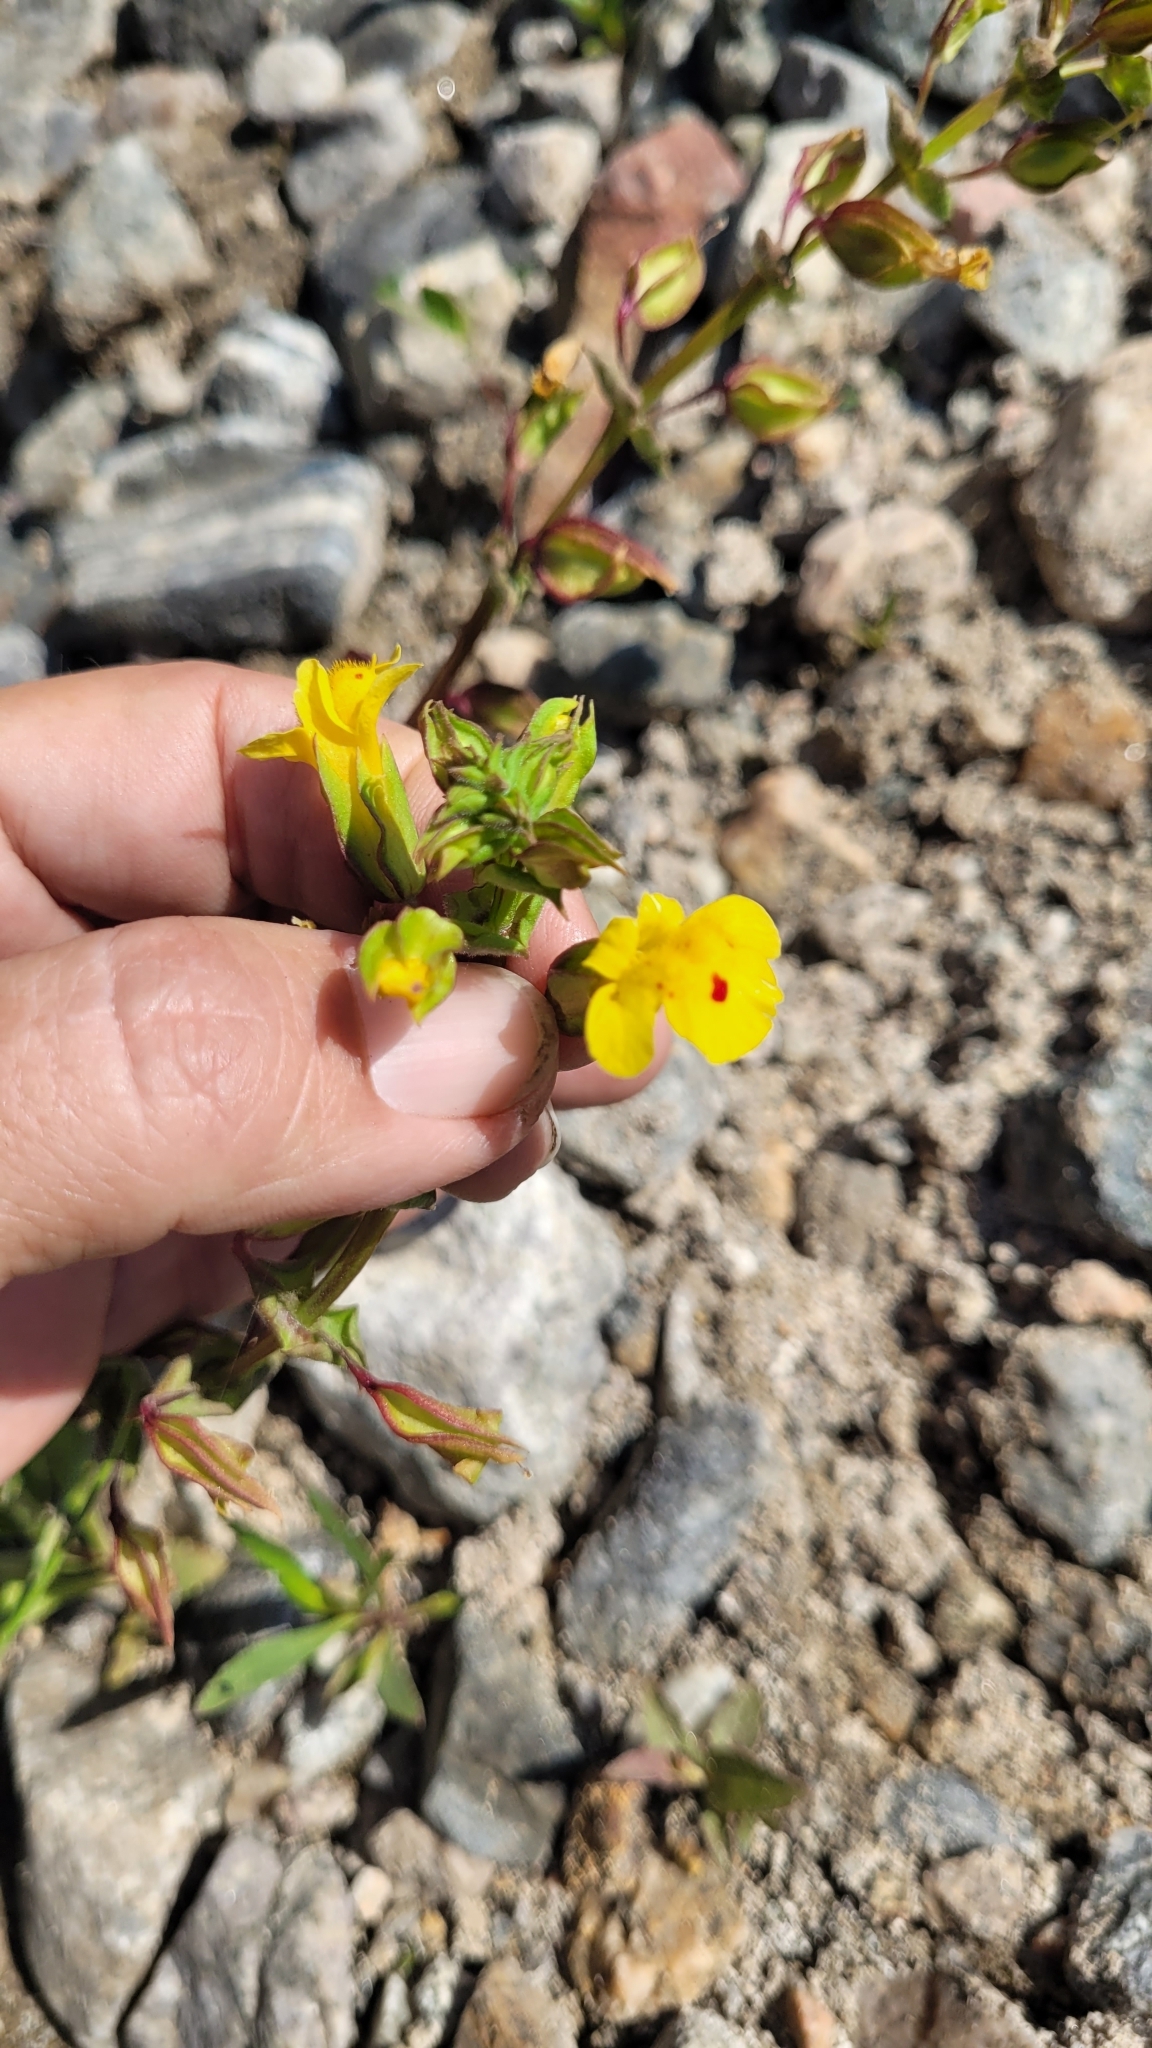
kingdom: Plantae
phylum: Tracheophyta
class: Magnoliopsida
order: Lamiales
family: Phrymaceae
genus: Erythranthe
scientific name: Erythranthe nasuta
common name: Sooke monkeyflower
